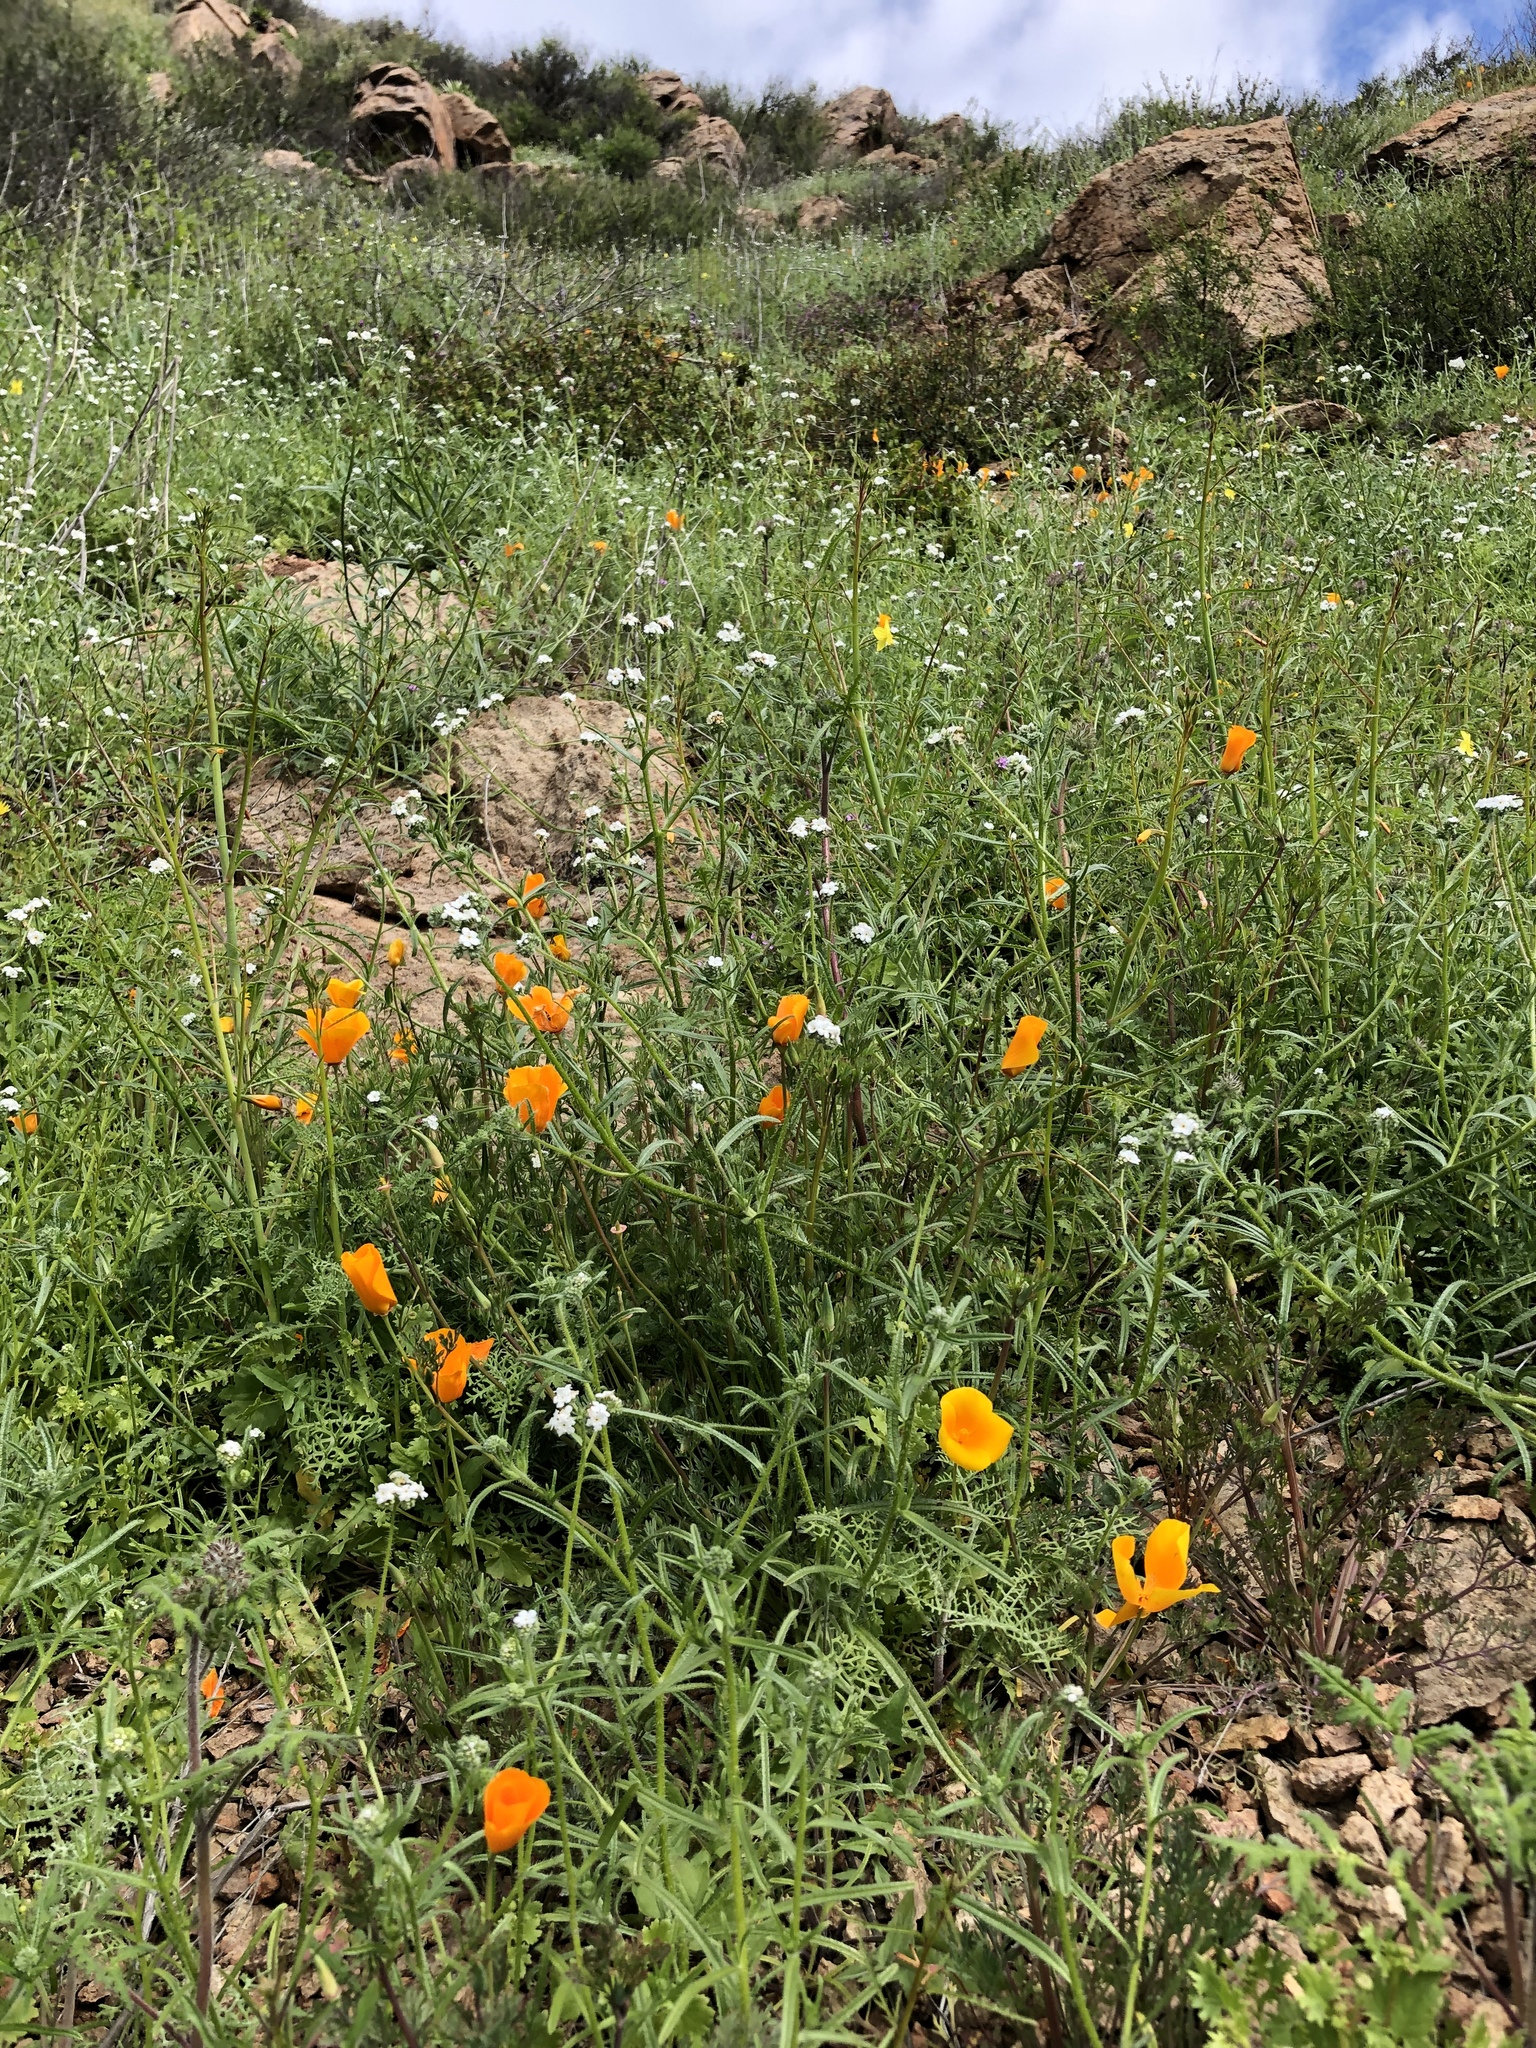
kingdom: Plantae
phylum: Tracheophyta
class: Magnoliopsida
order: Ranunculales
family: Papaveraceae
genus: Eschscholzia
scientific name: Eschscholzia californica
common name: California poppy
